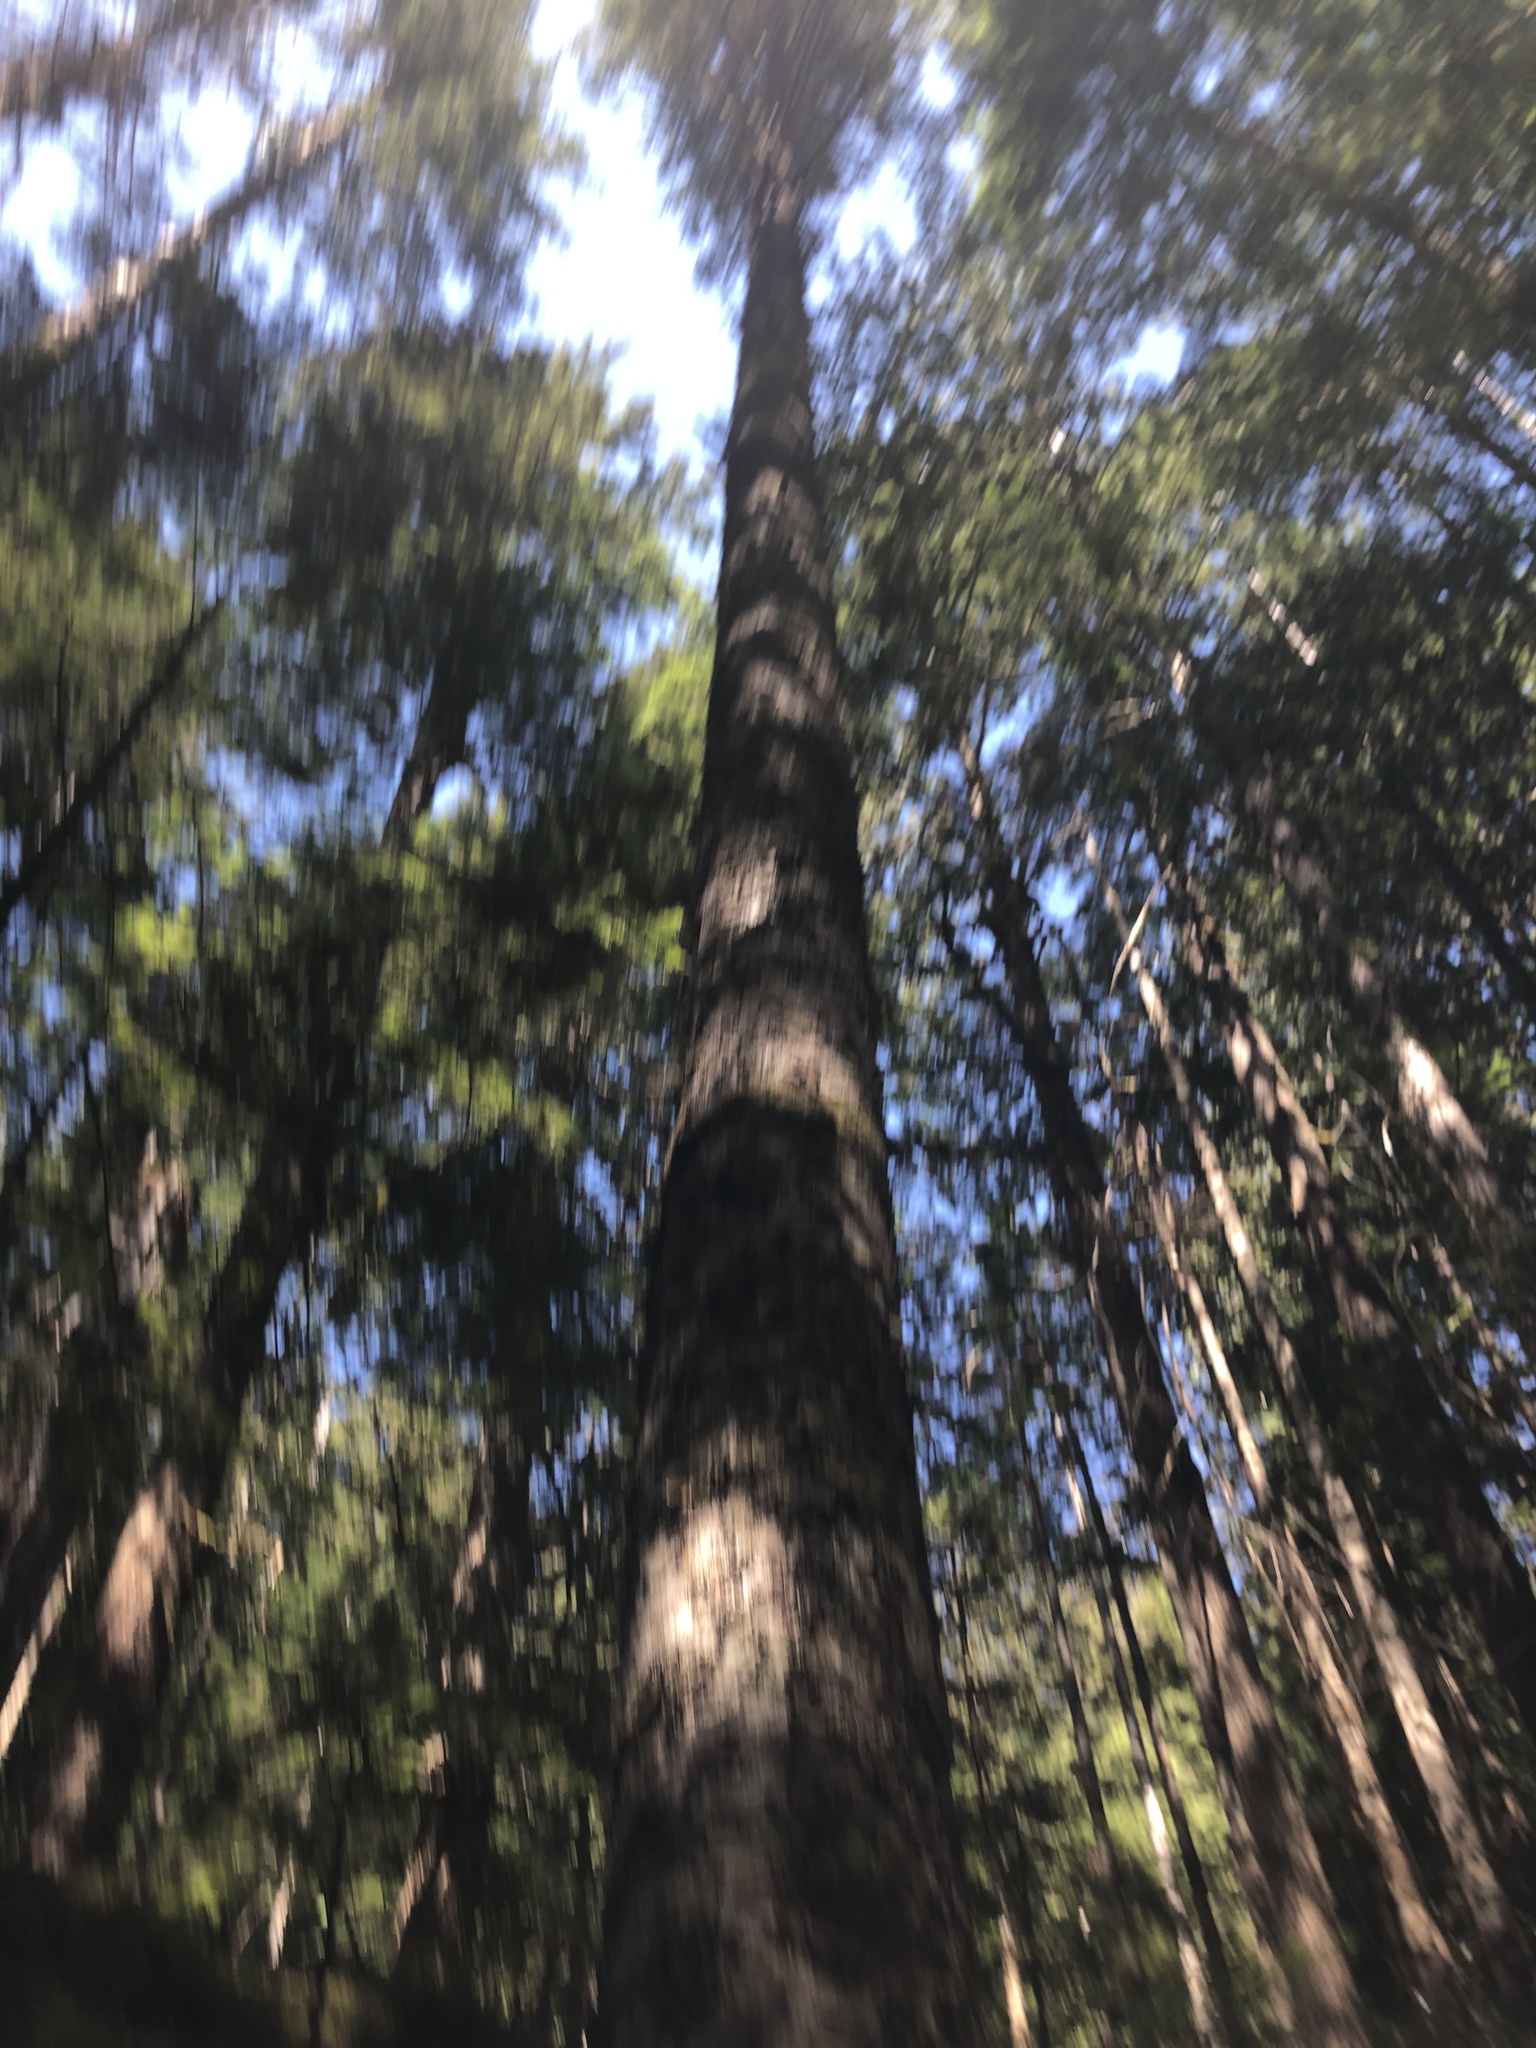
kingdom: Plantae
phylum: Tracheophyta
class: Pinopsida
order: Pinales
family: Pinaceae
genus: Abies
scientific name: Abies amabilis
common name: Pacific silver fir
